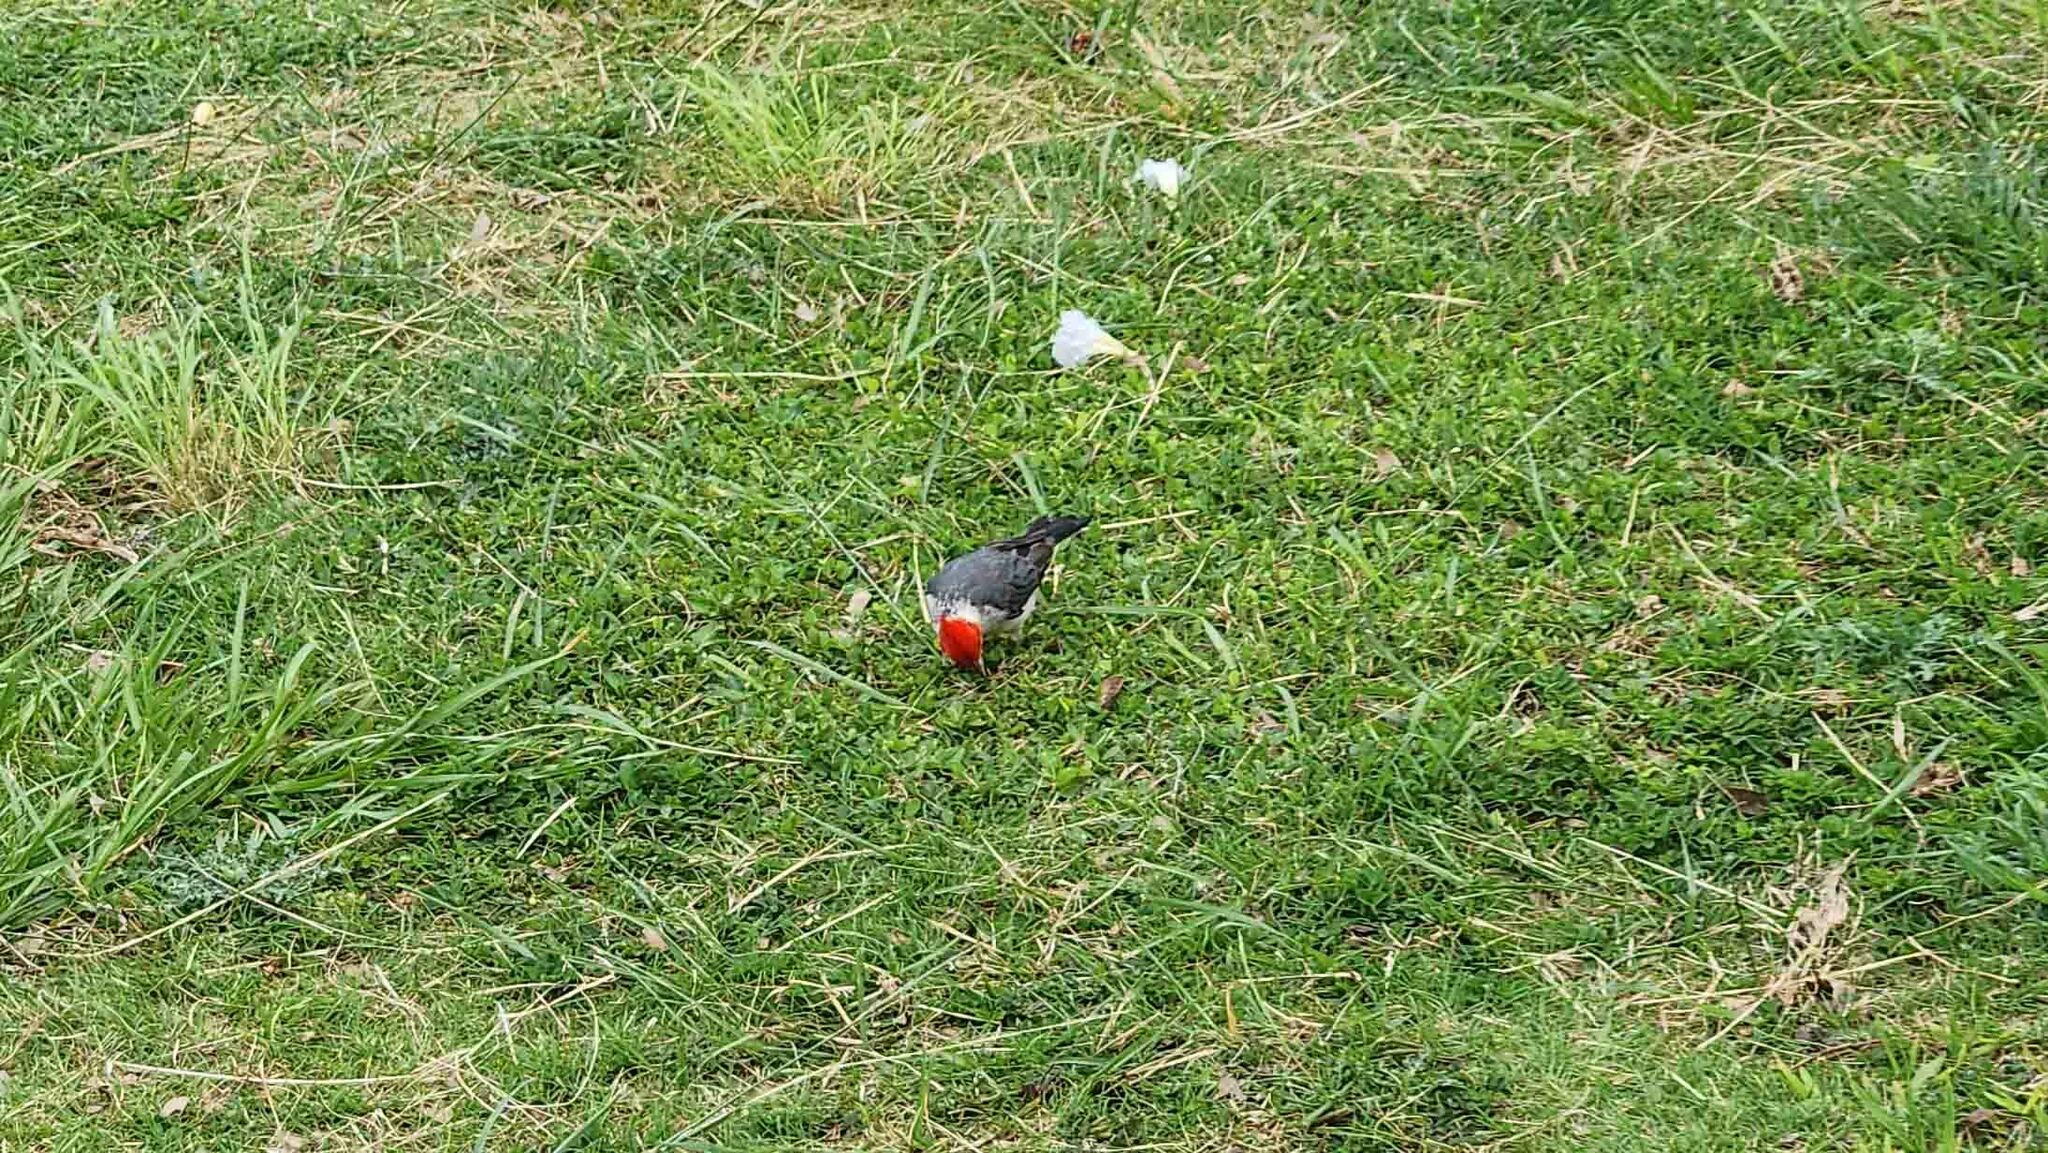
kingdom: Animalia
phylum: Chordata
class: Aves
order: Passeriformes
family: Thraupidae
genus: Paroaria
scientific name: Paroaria coronata
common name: Red-crested cardinal
